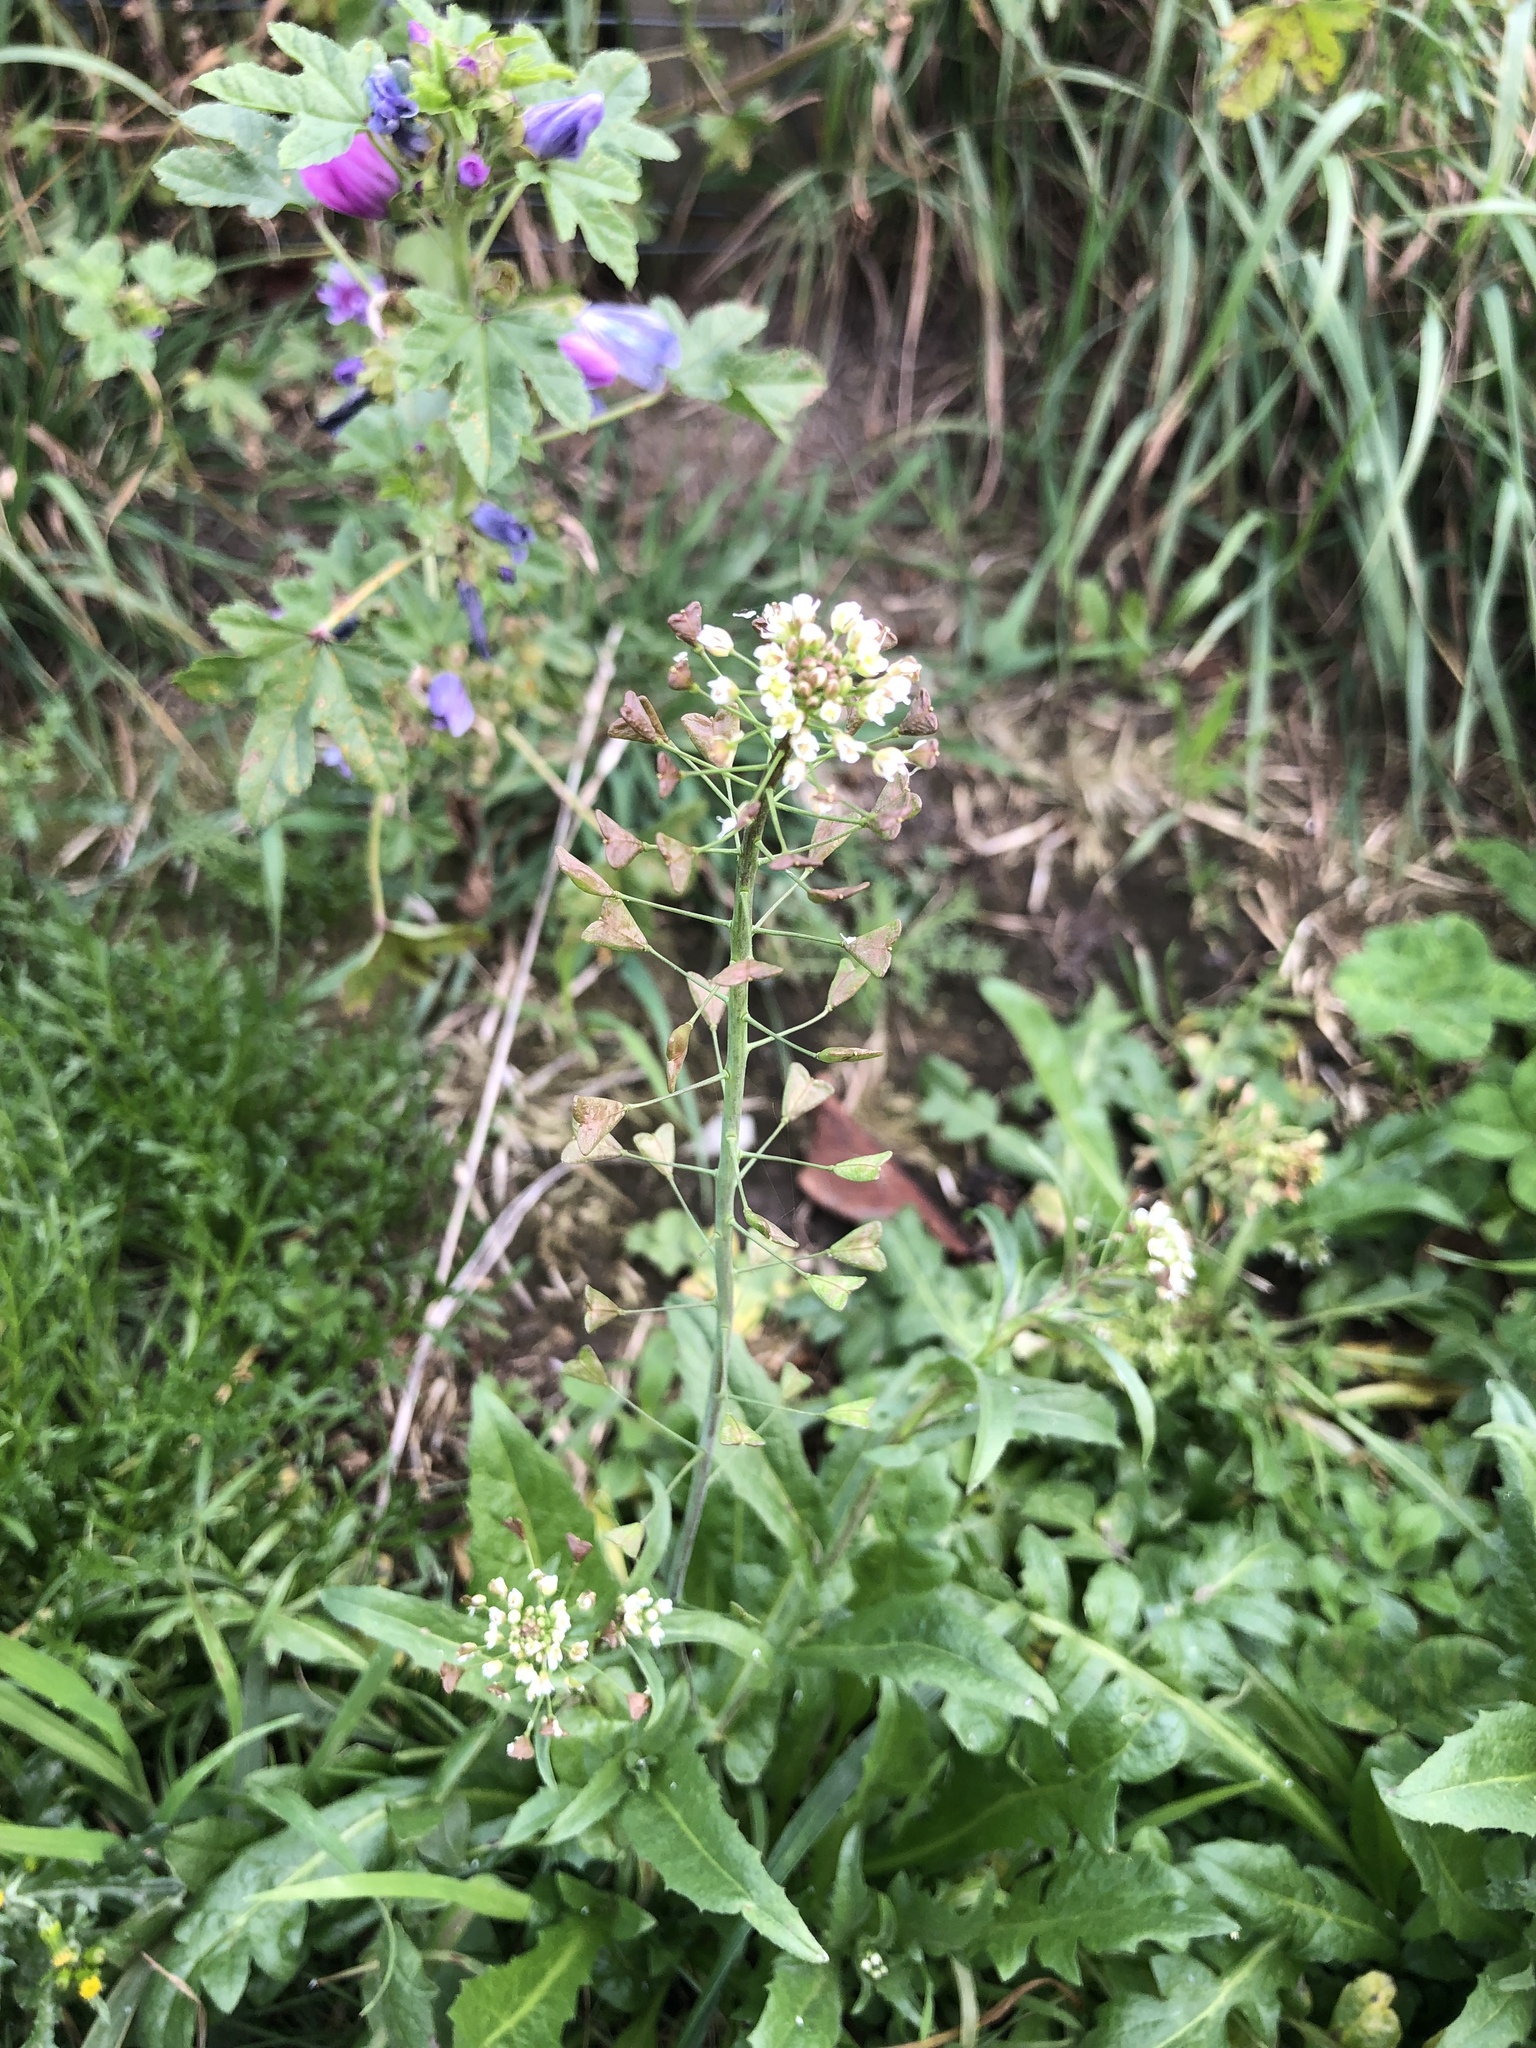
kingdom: Plantae
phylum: Tracheophyta
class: Magnoliopsida
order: Brassicales
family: Brassicaceae
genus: Capsella
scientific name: Capsella bursa-pastoris
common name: Shepherd's purse
